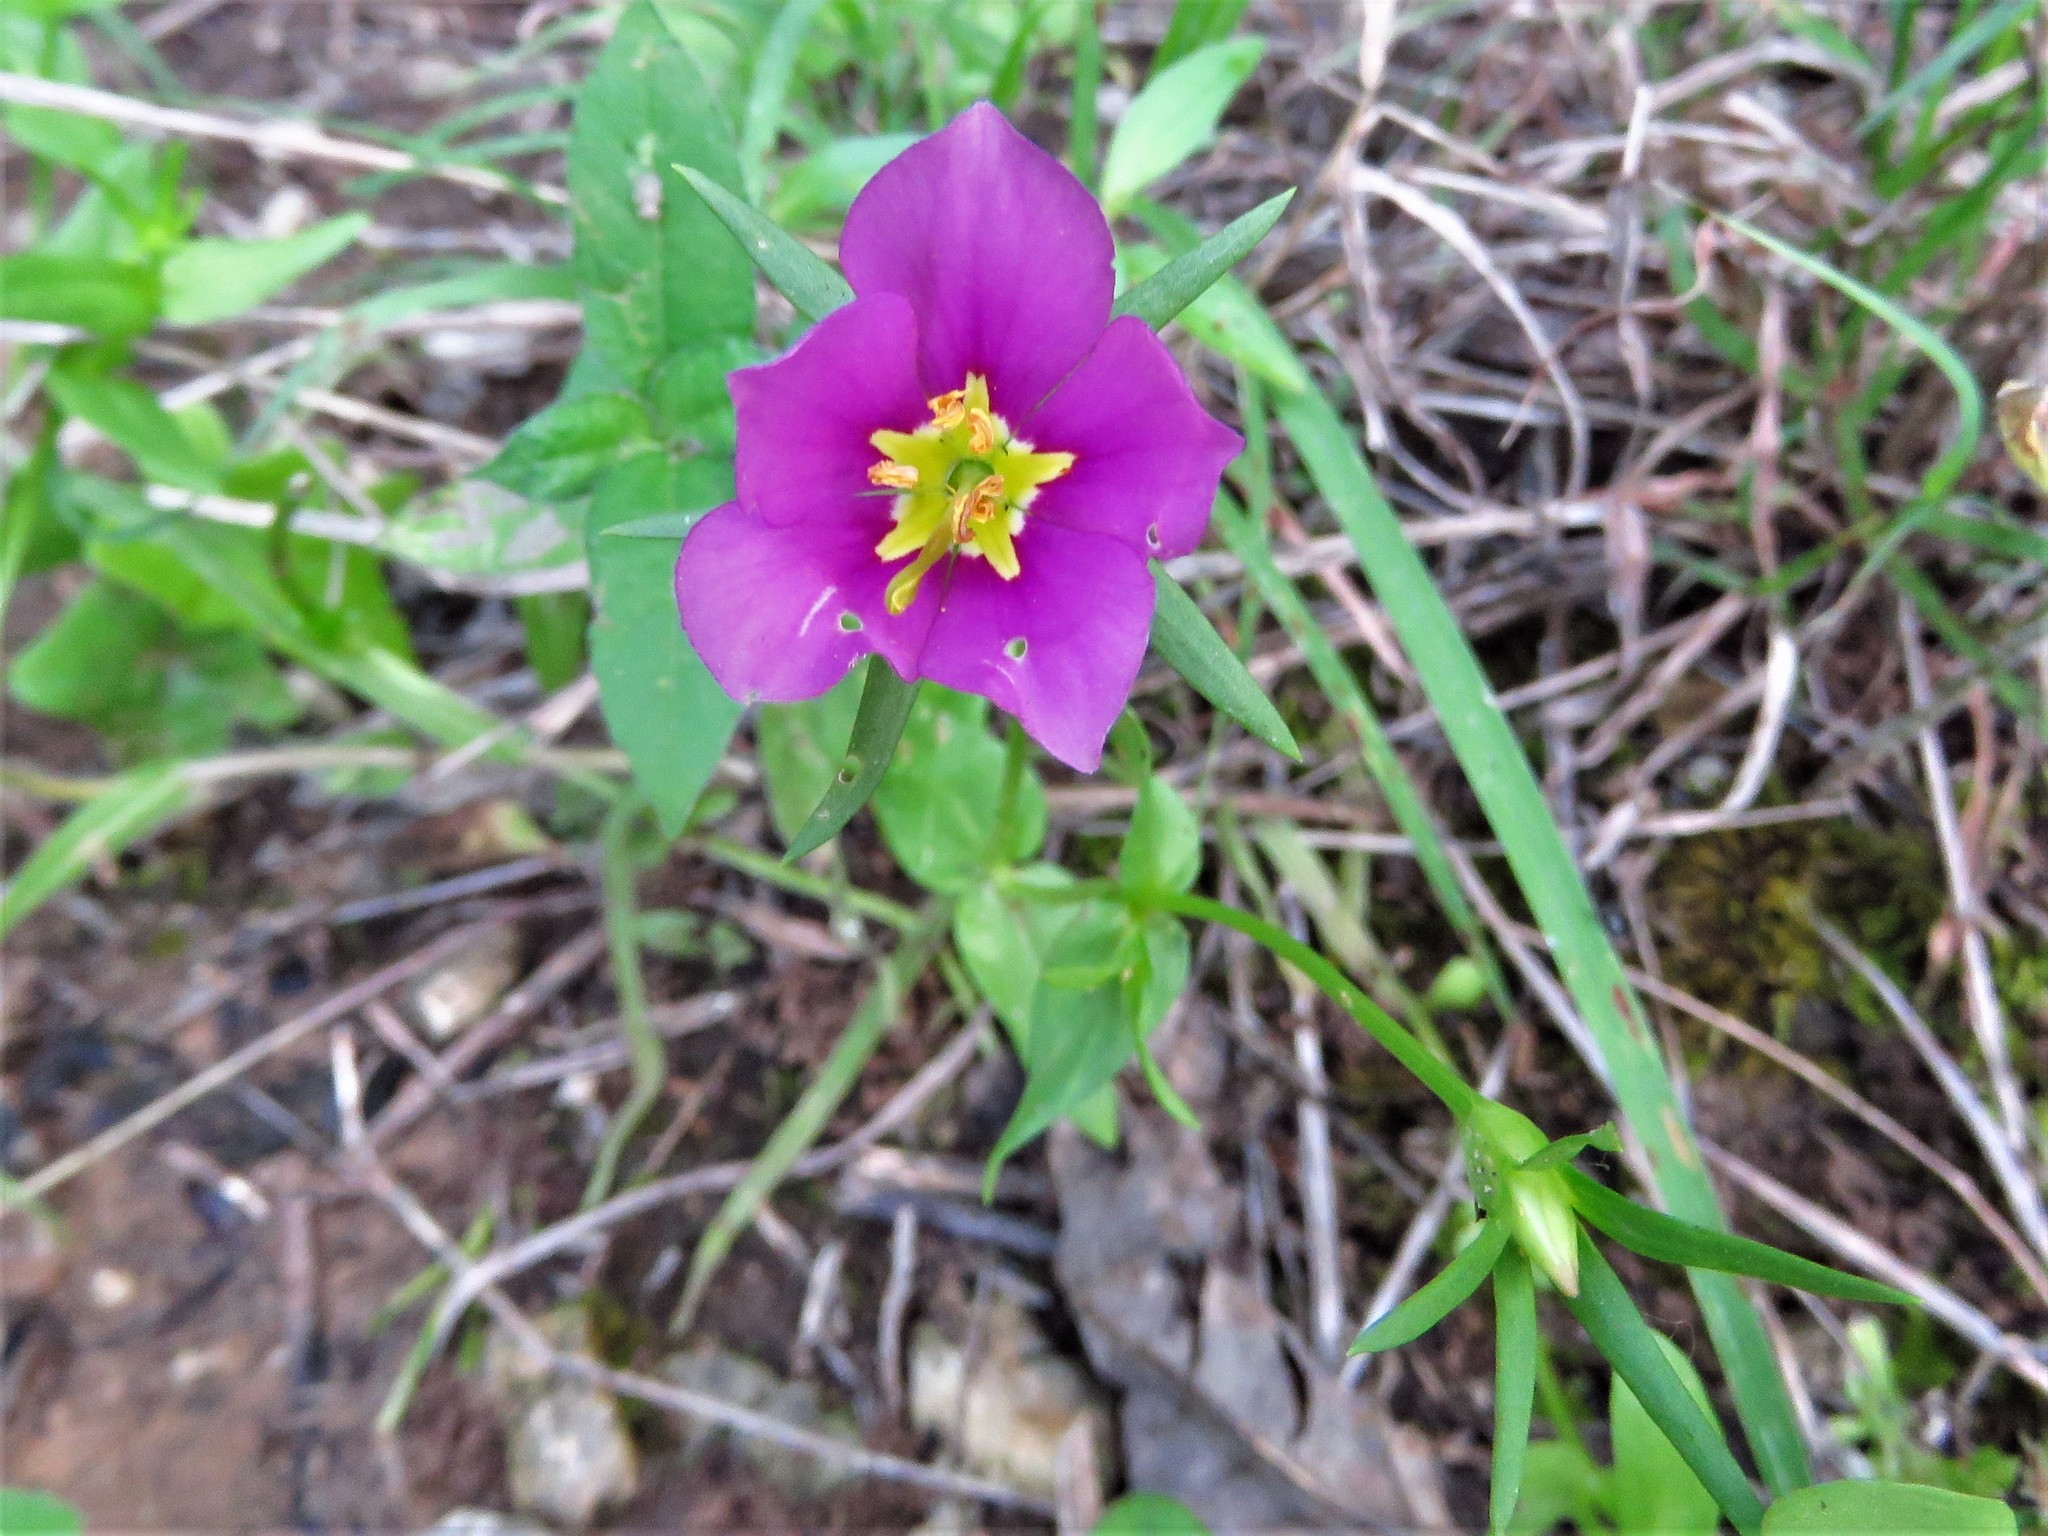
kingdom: Plantae
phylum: Tracheophyta
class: Magnoliopsida
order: Gentianales
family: Gentianaceae
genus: Sabatia
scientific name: Sabatia campestris
